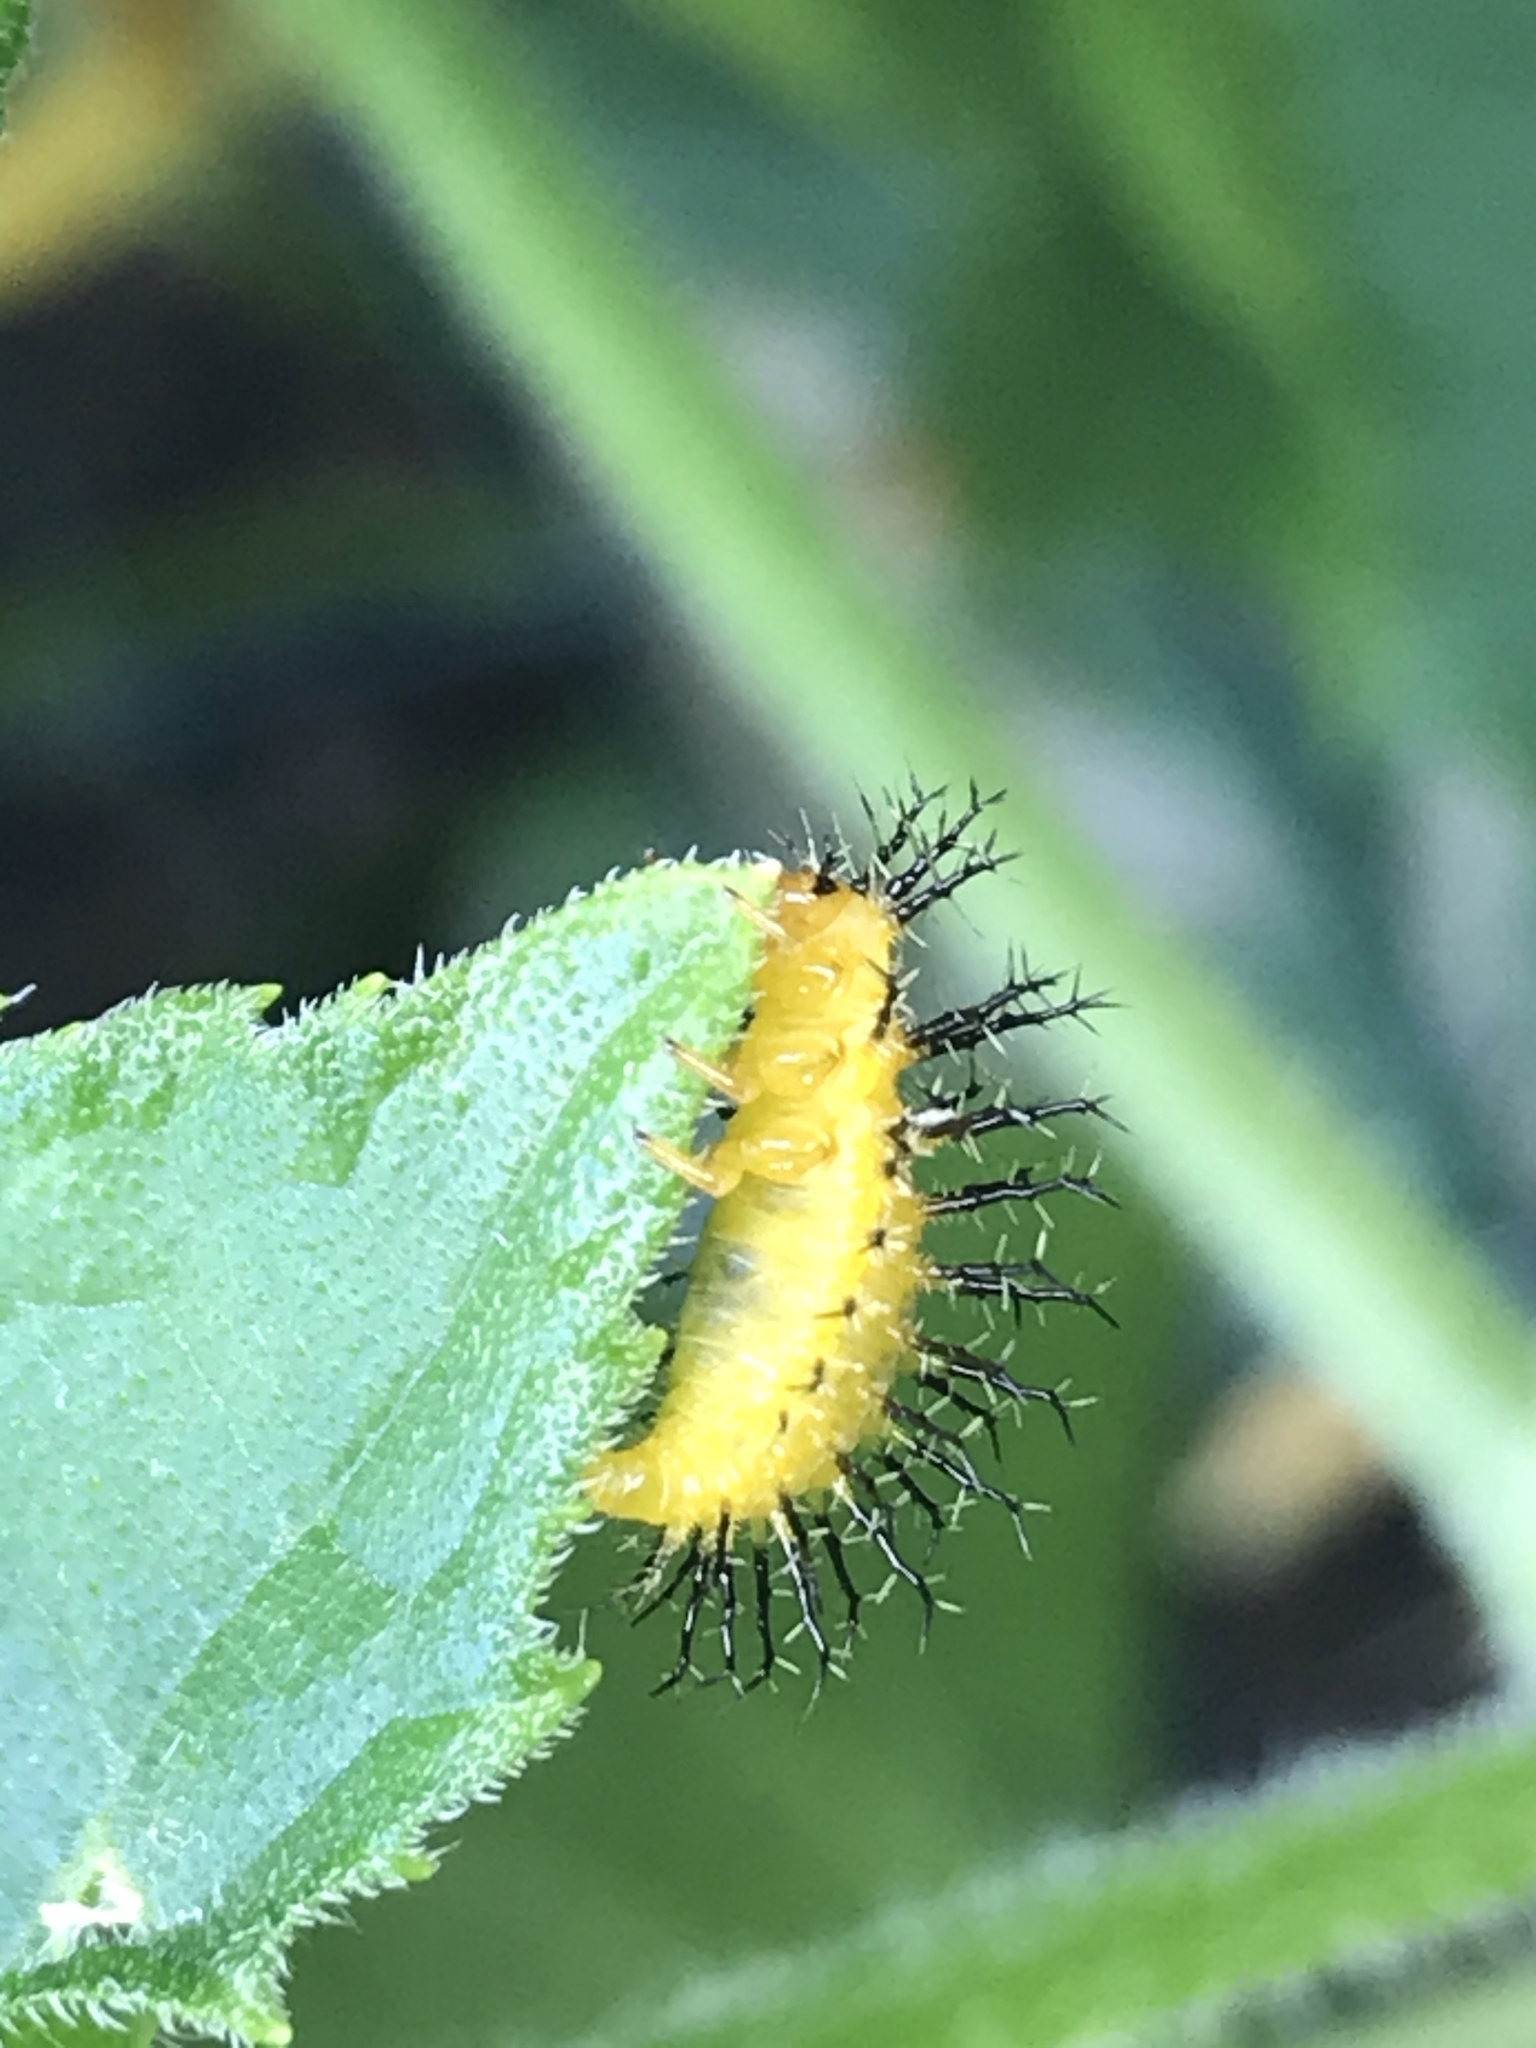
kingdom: Animalia
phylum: Arthropoda
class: Insecta
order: Coleoptera
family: Coccinellidae
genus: Epilachna
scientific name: Epilachna borealis
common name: Squash beetle
